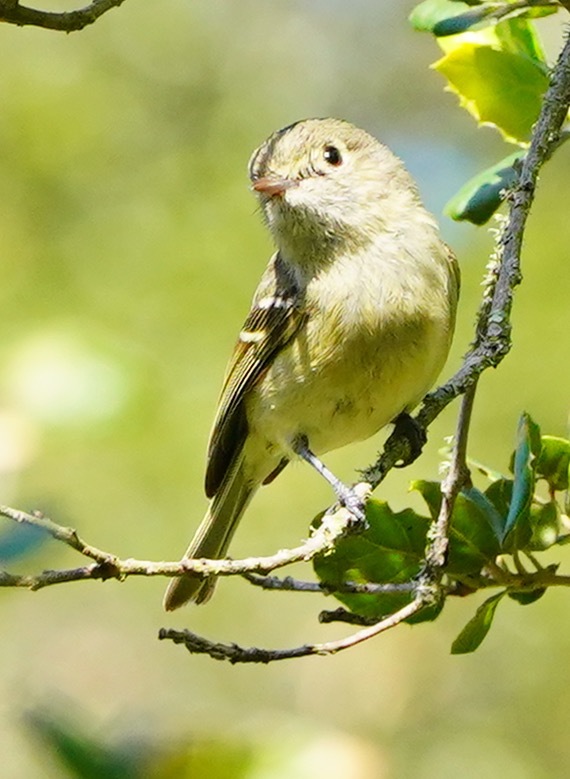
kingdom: Animalia
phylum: Chordata
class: Aves
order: Passeriformes
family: Vireonidae
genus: Vireo
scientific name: Vireo huttoni
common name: Hutton's vireo
